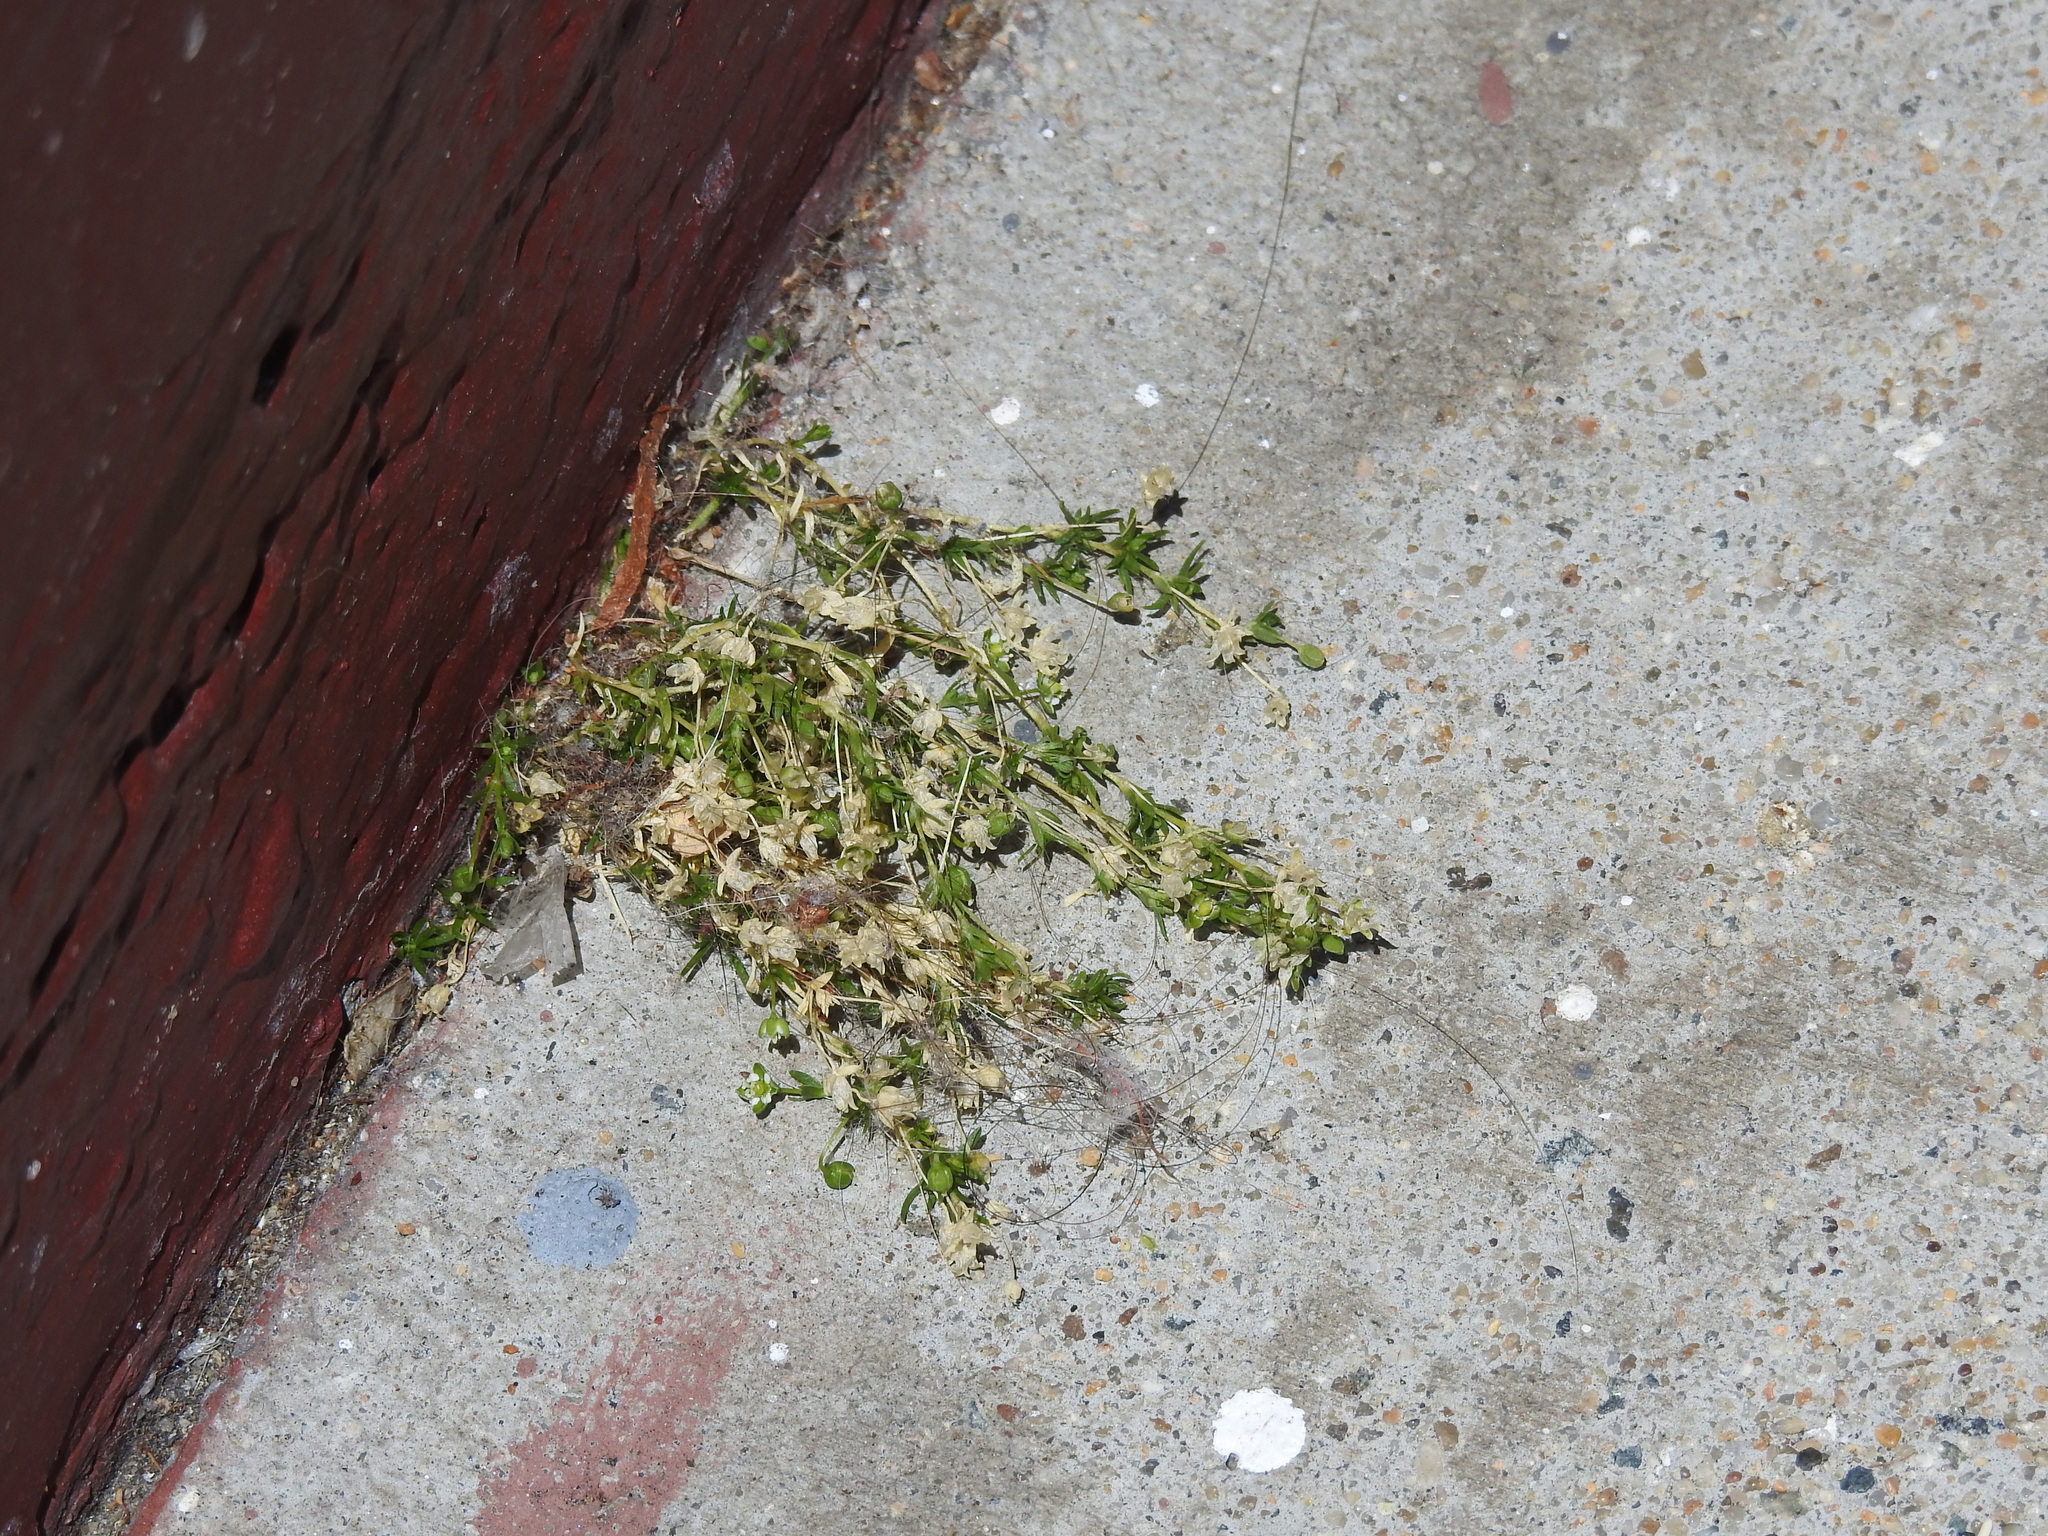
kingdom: Plantae
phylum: Tracheophyta
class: Magnoliopsida
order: Caryophyllales
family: Caryophyllaceae
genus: Sagina
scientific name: Sagina procumbens
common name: Procumbent pearlwort
